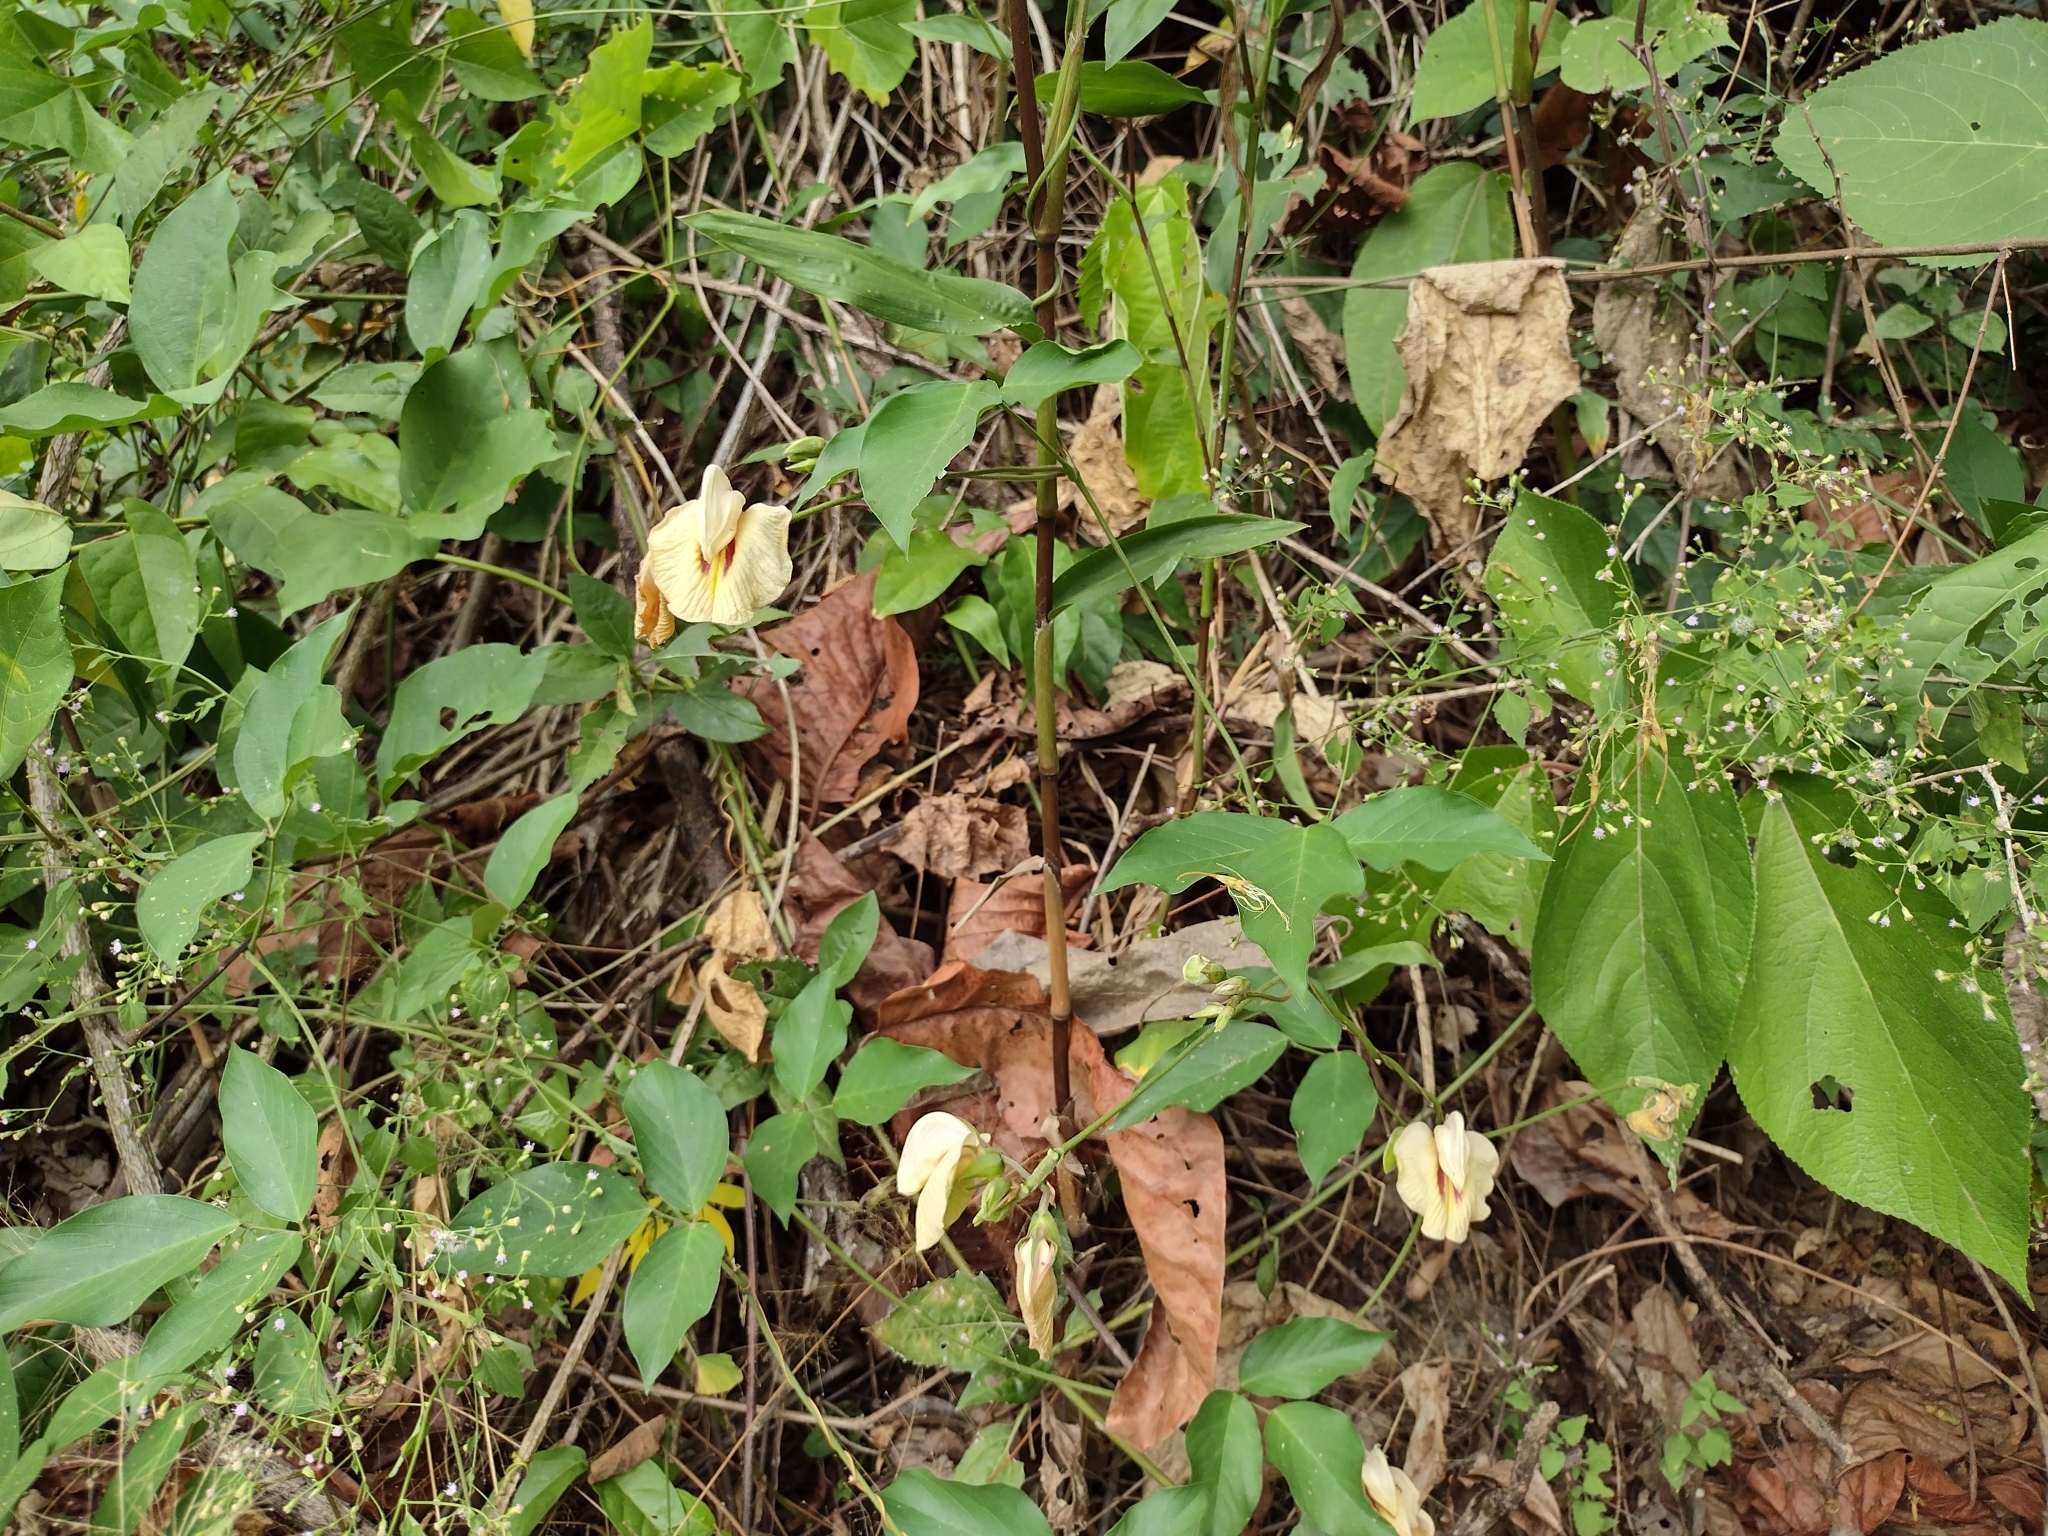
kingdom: Plantae
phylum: Tracheophyta
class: Magnoliopsida
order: Fabales
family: Fabaceae
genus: Centrosema
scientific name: Centrosema macrocarpum
